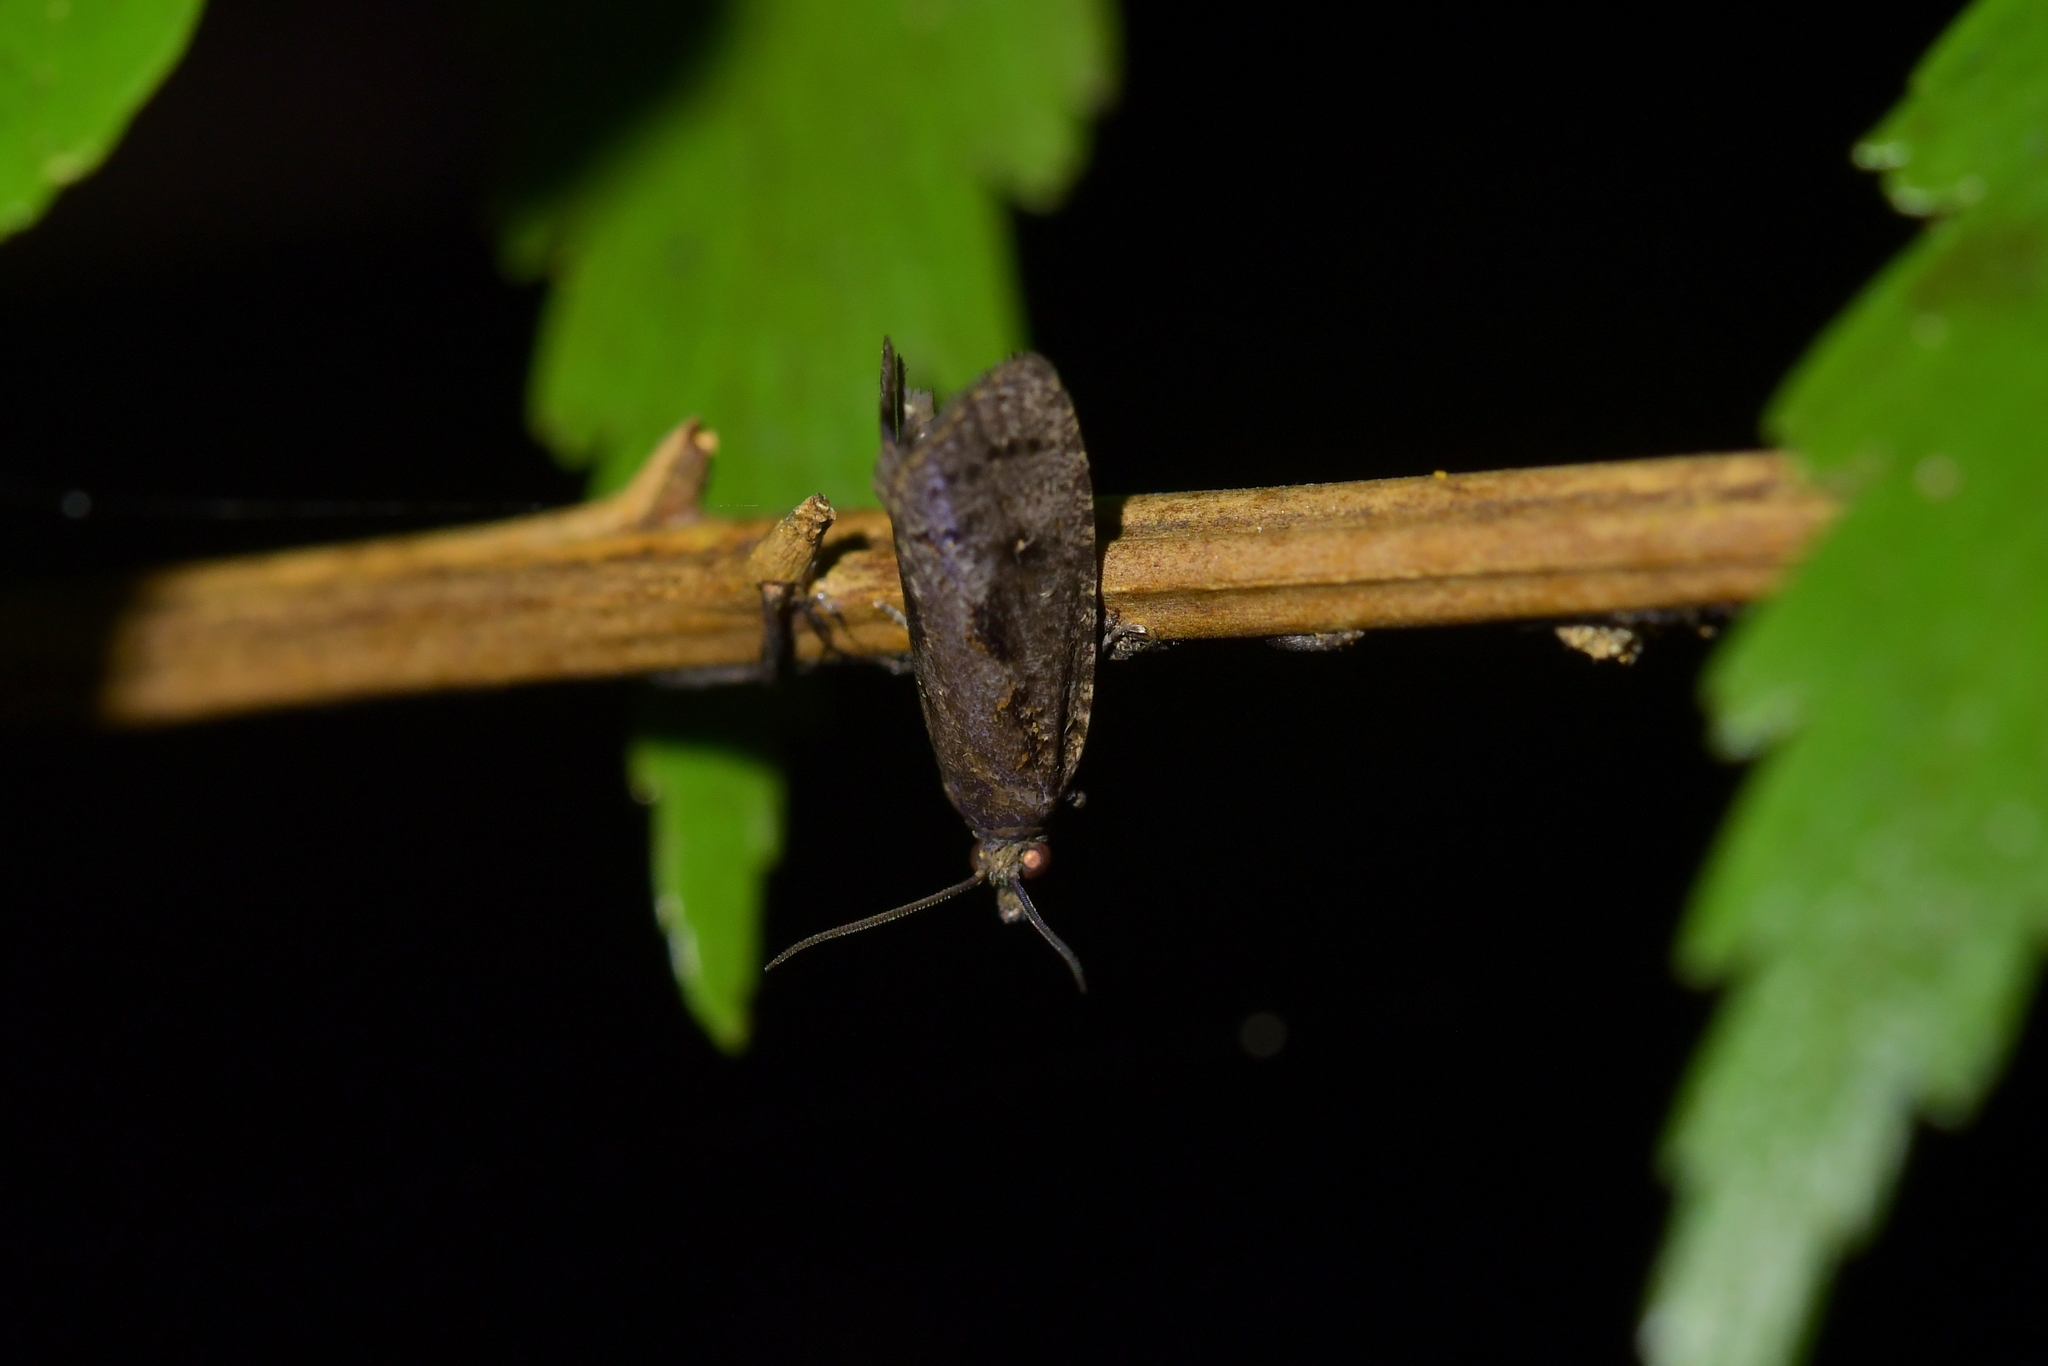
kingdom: Animalia
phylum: Arthropoda
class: Insecta
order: Lepidoptera
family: Tortricidae
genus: Cryptaspasma
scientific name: Cryptaspasma querula
